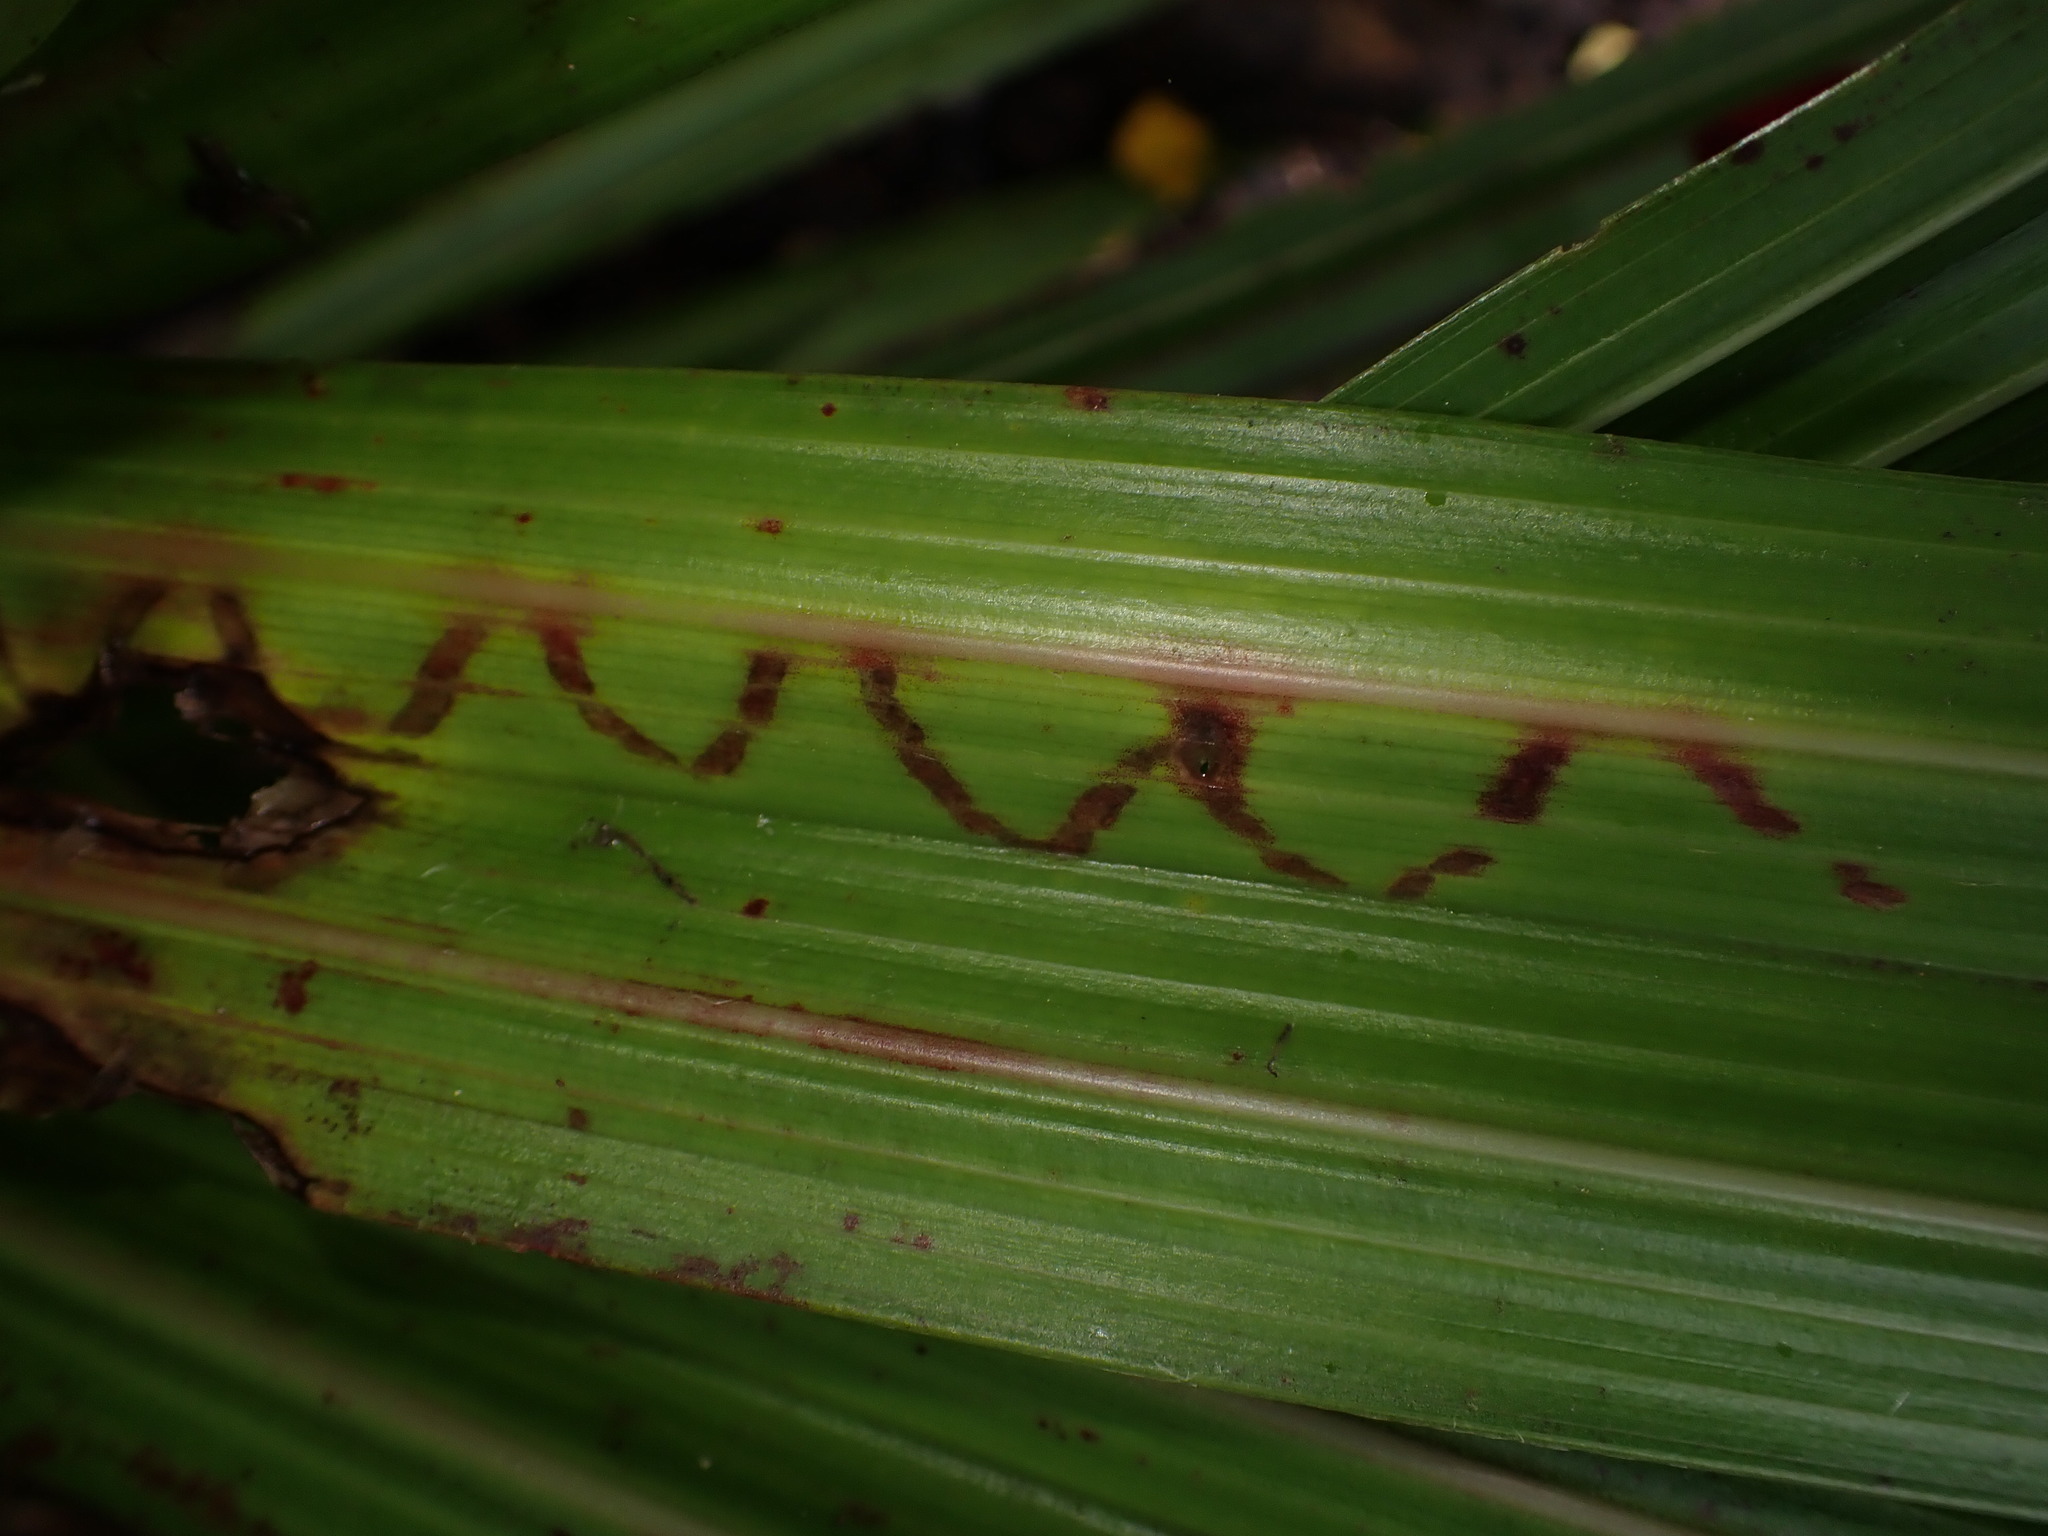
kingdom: Animalia
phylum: Arthropoda
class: Insecta
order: Lepidoptera
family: Plutellidae
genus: Charixena
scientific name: Charixena iridoxa
